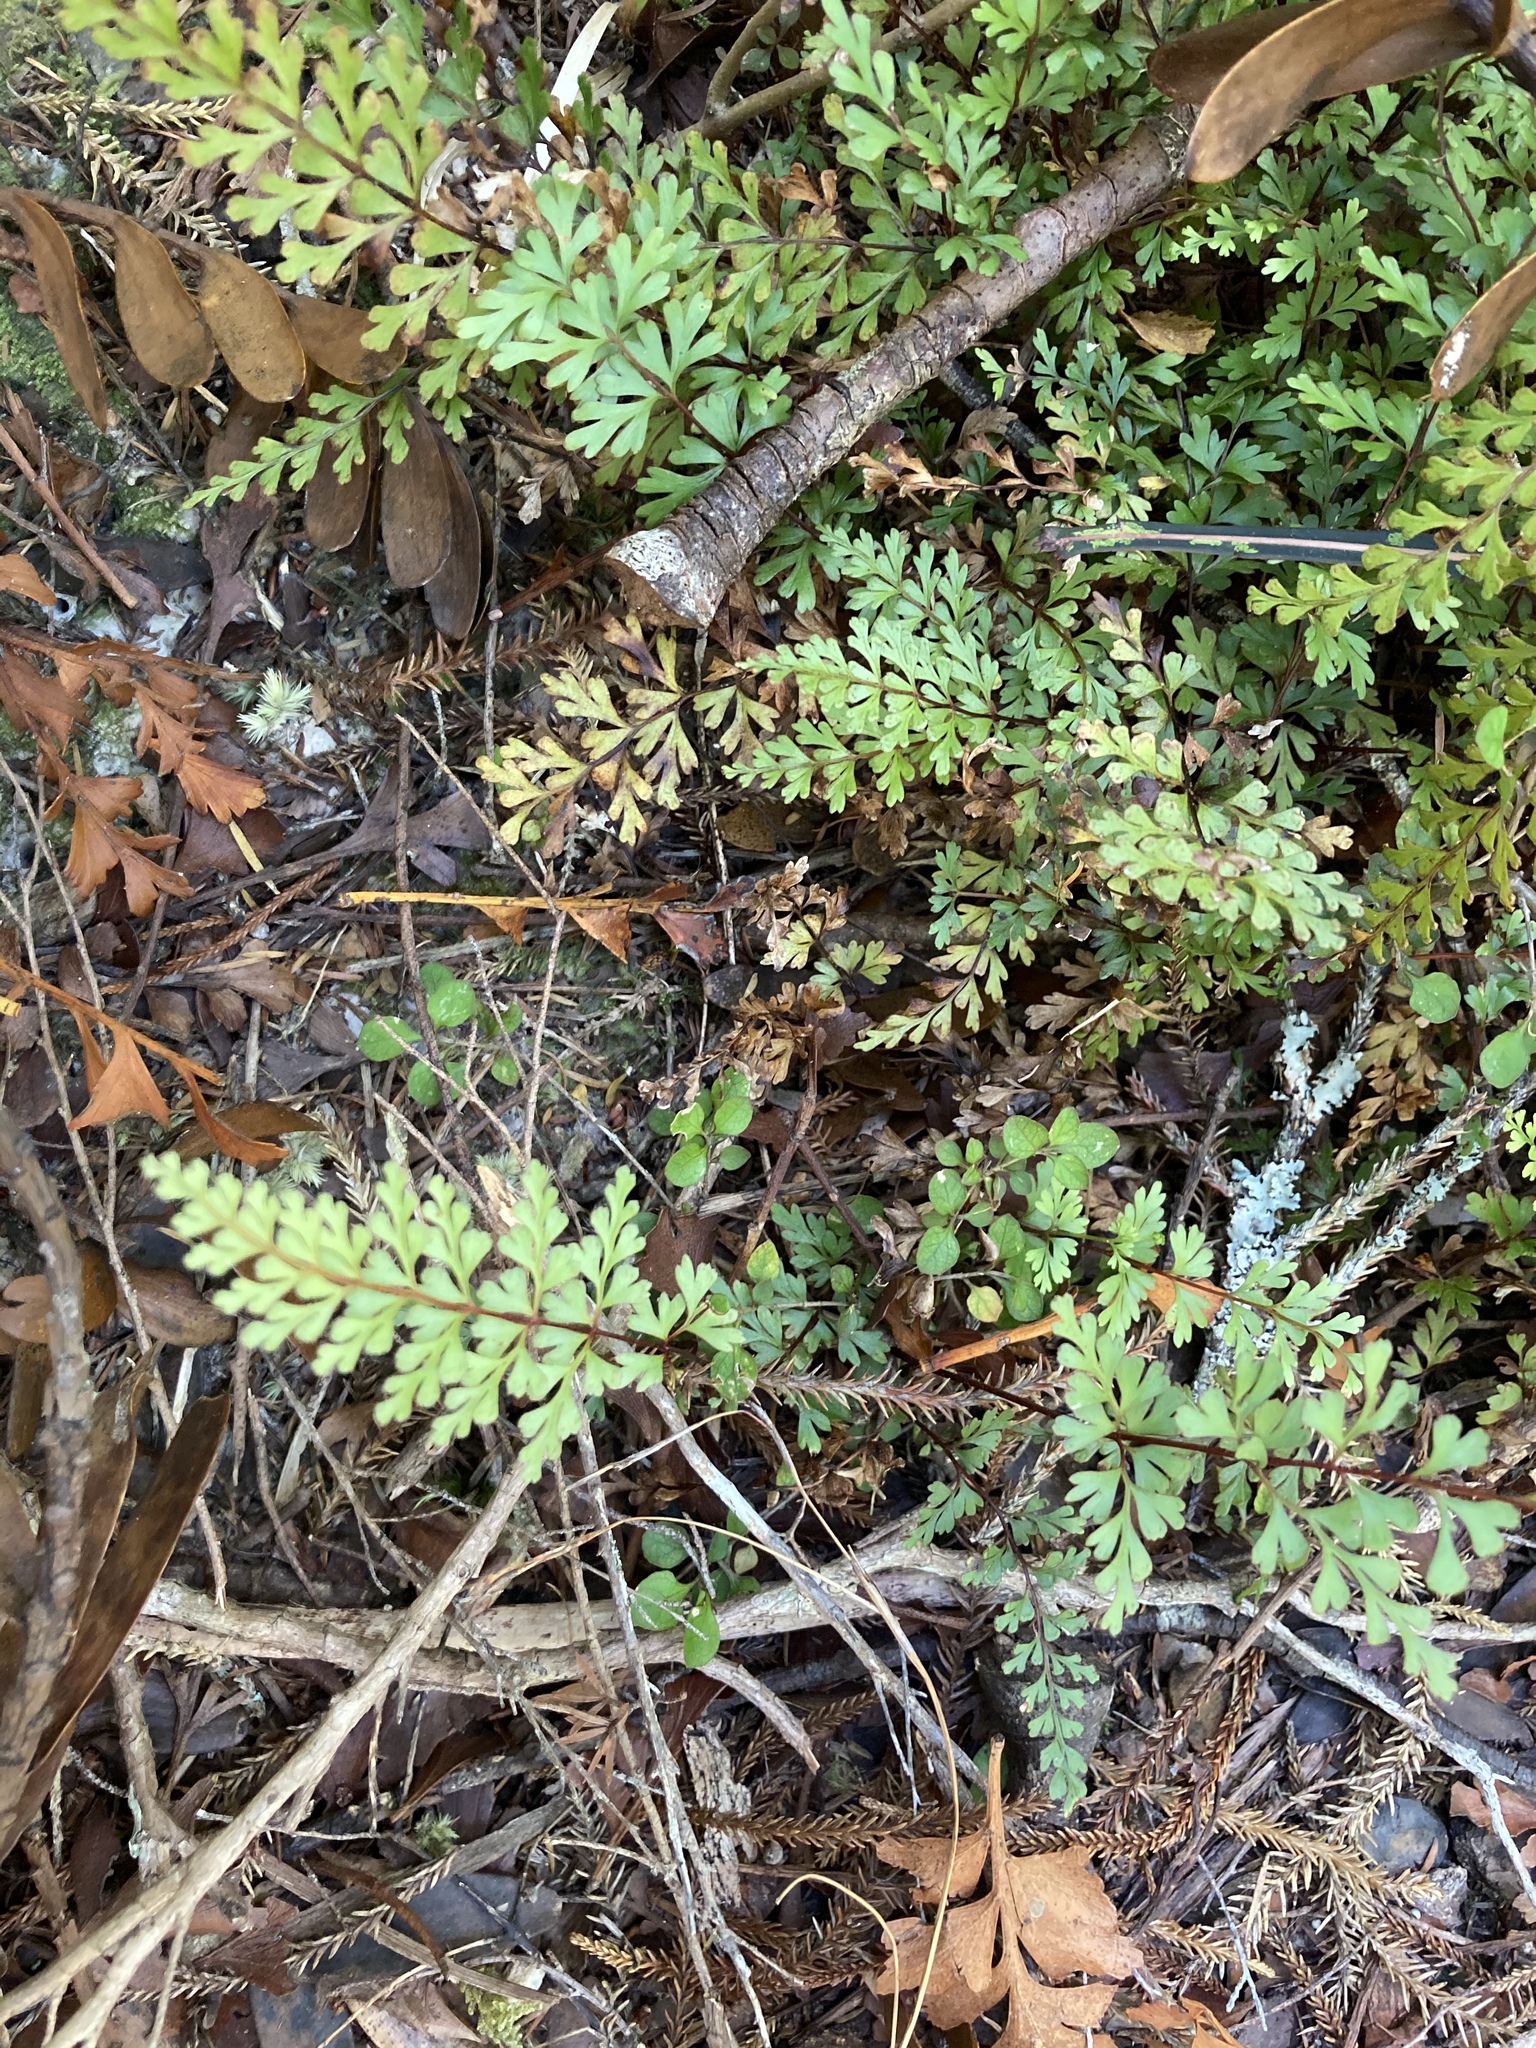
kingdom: Plantae
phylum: Tracheophyta
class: Polypodiopsida
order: Polypodiales
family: Lindsaeaceae
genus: Lindsaea
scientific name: Lindsaea trichomanoides
